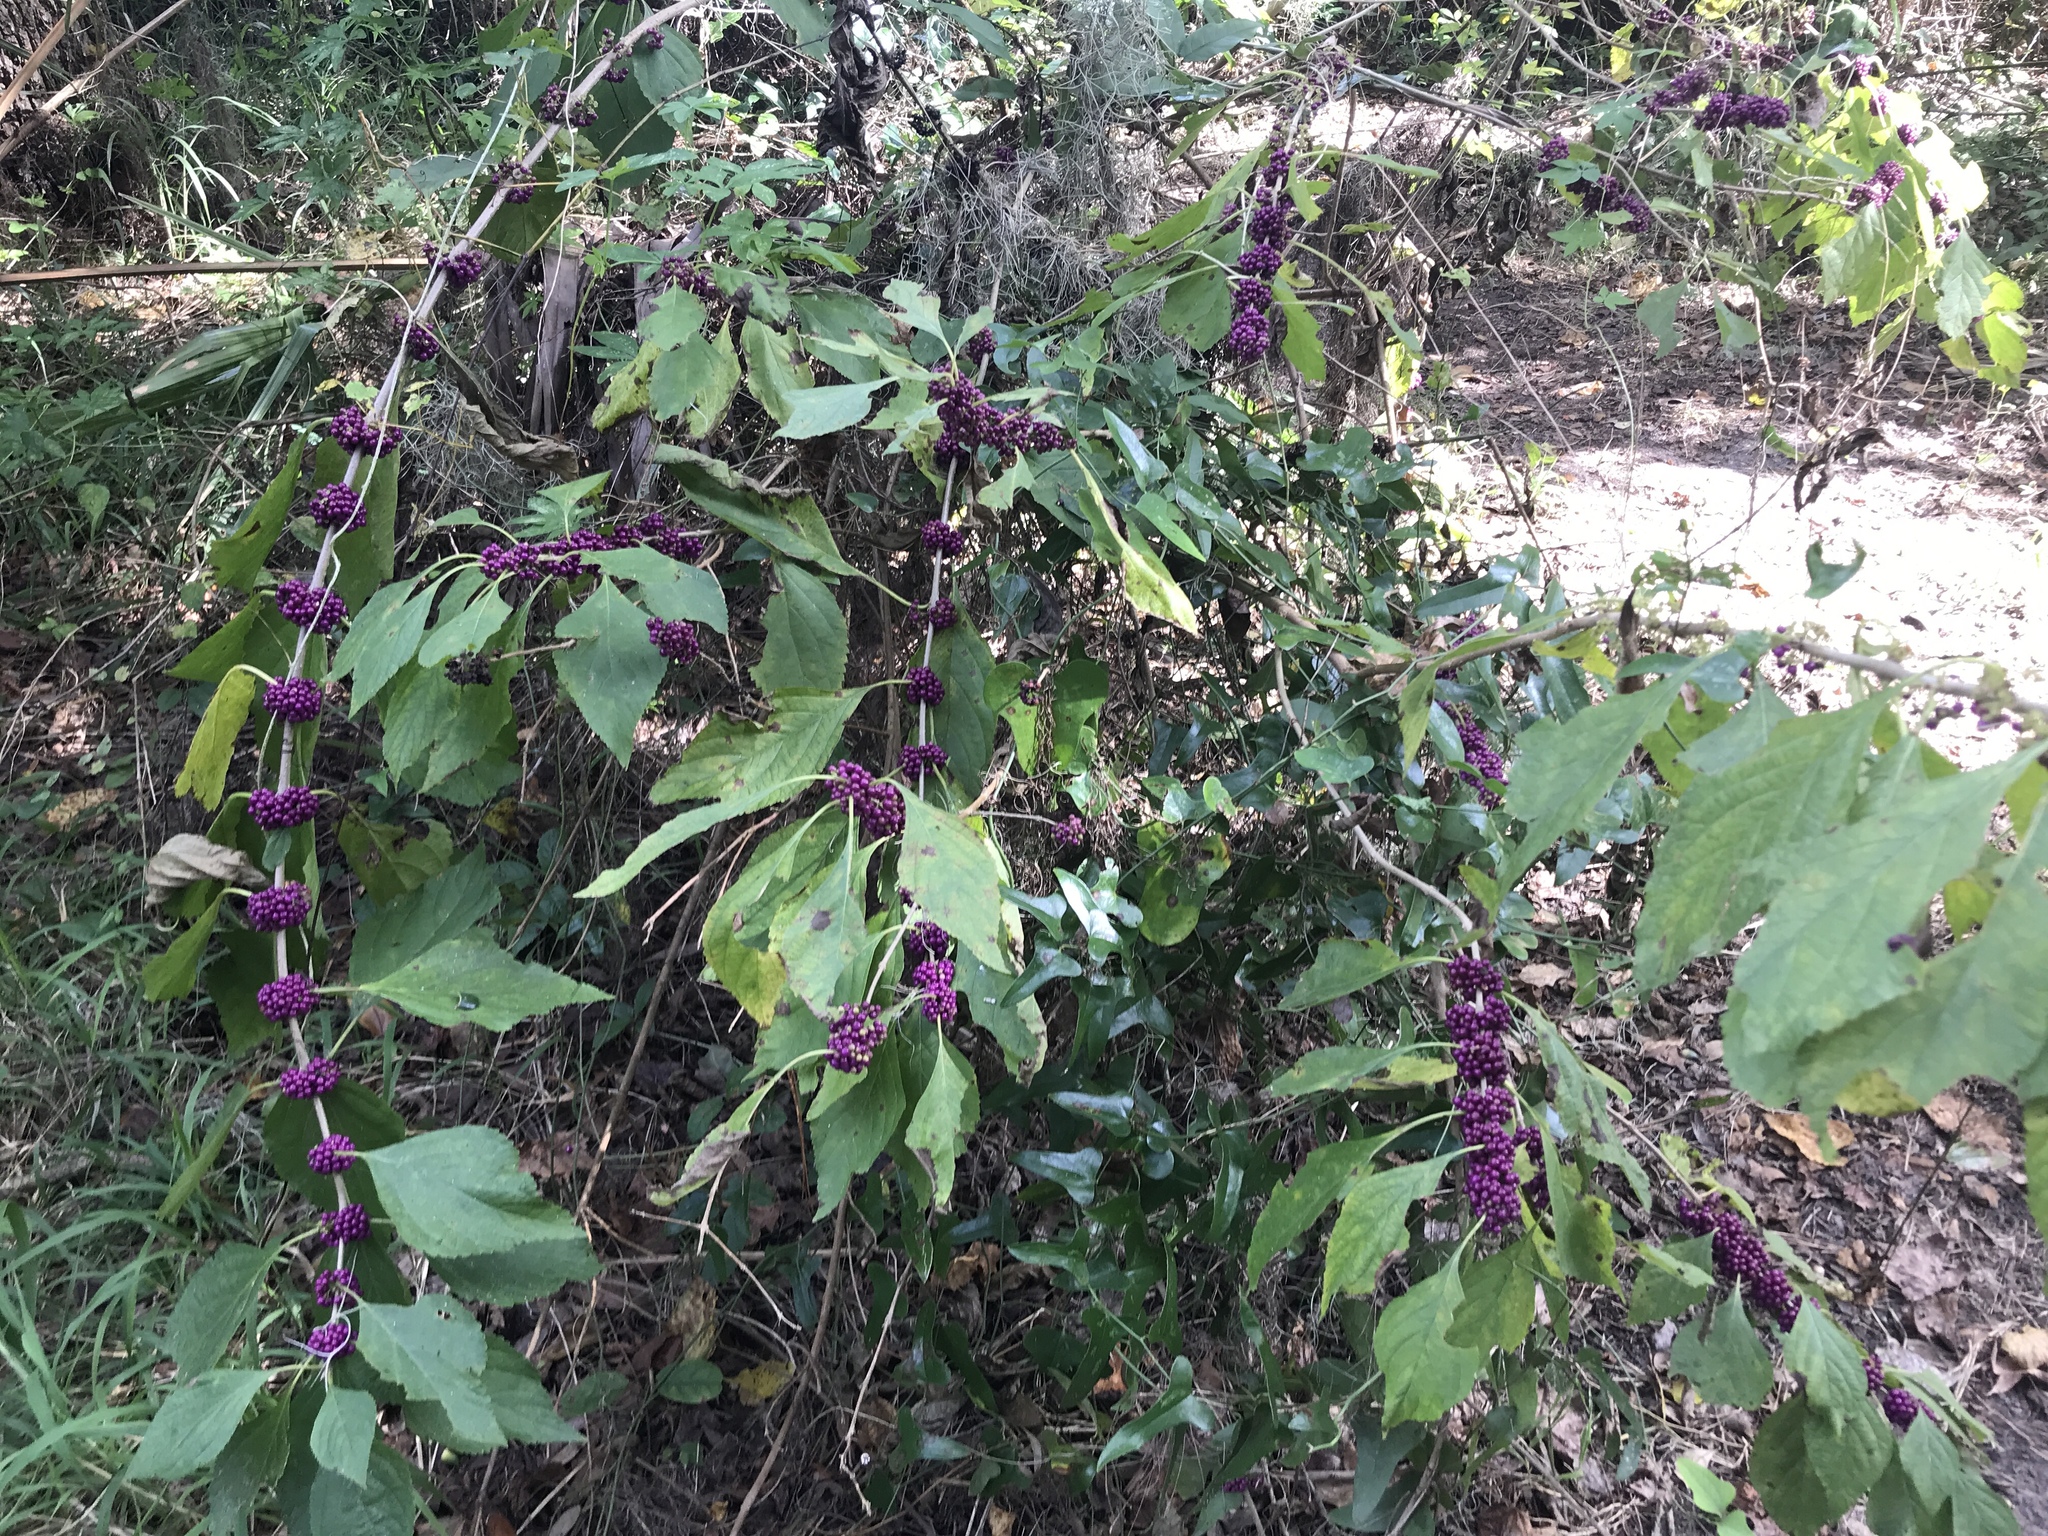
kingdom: Plantae
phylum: Tracheophyta
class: Magnoliopsida
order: Lamiales
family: Lamiaceae
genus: Callicarpa
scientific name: Callicarpa americana
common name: American beautyberry
